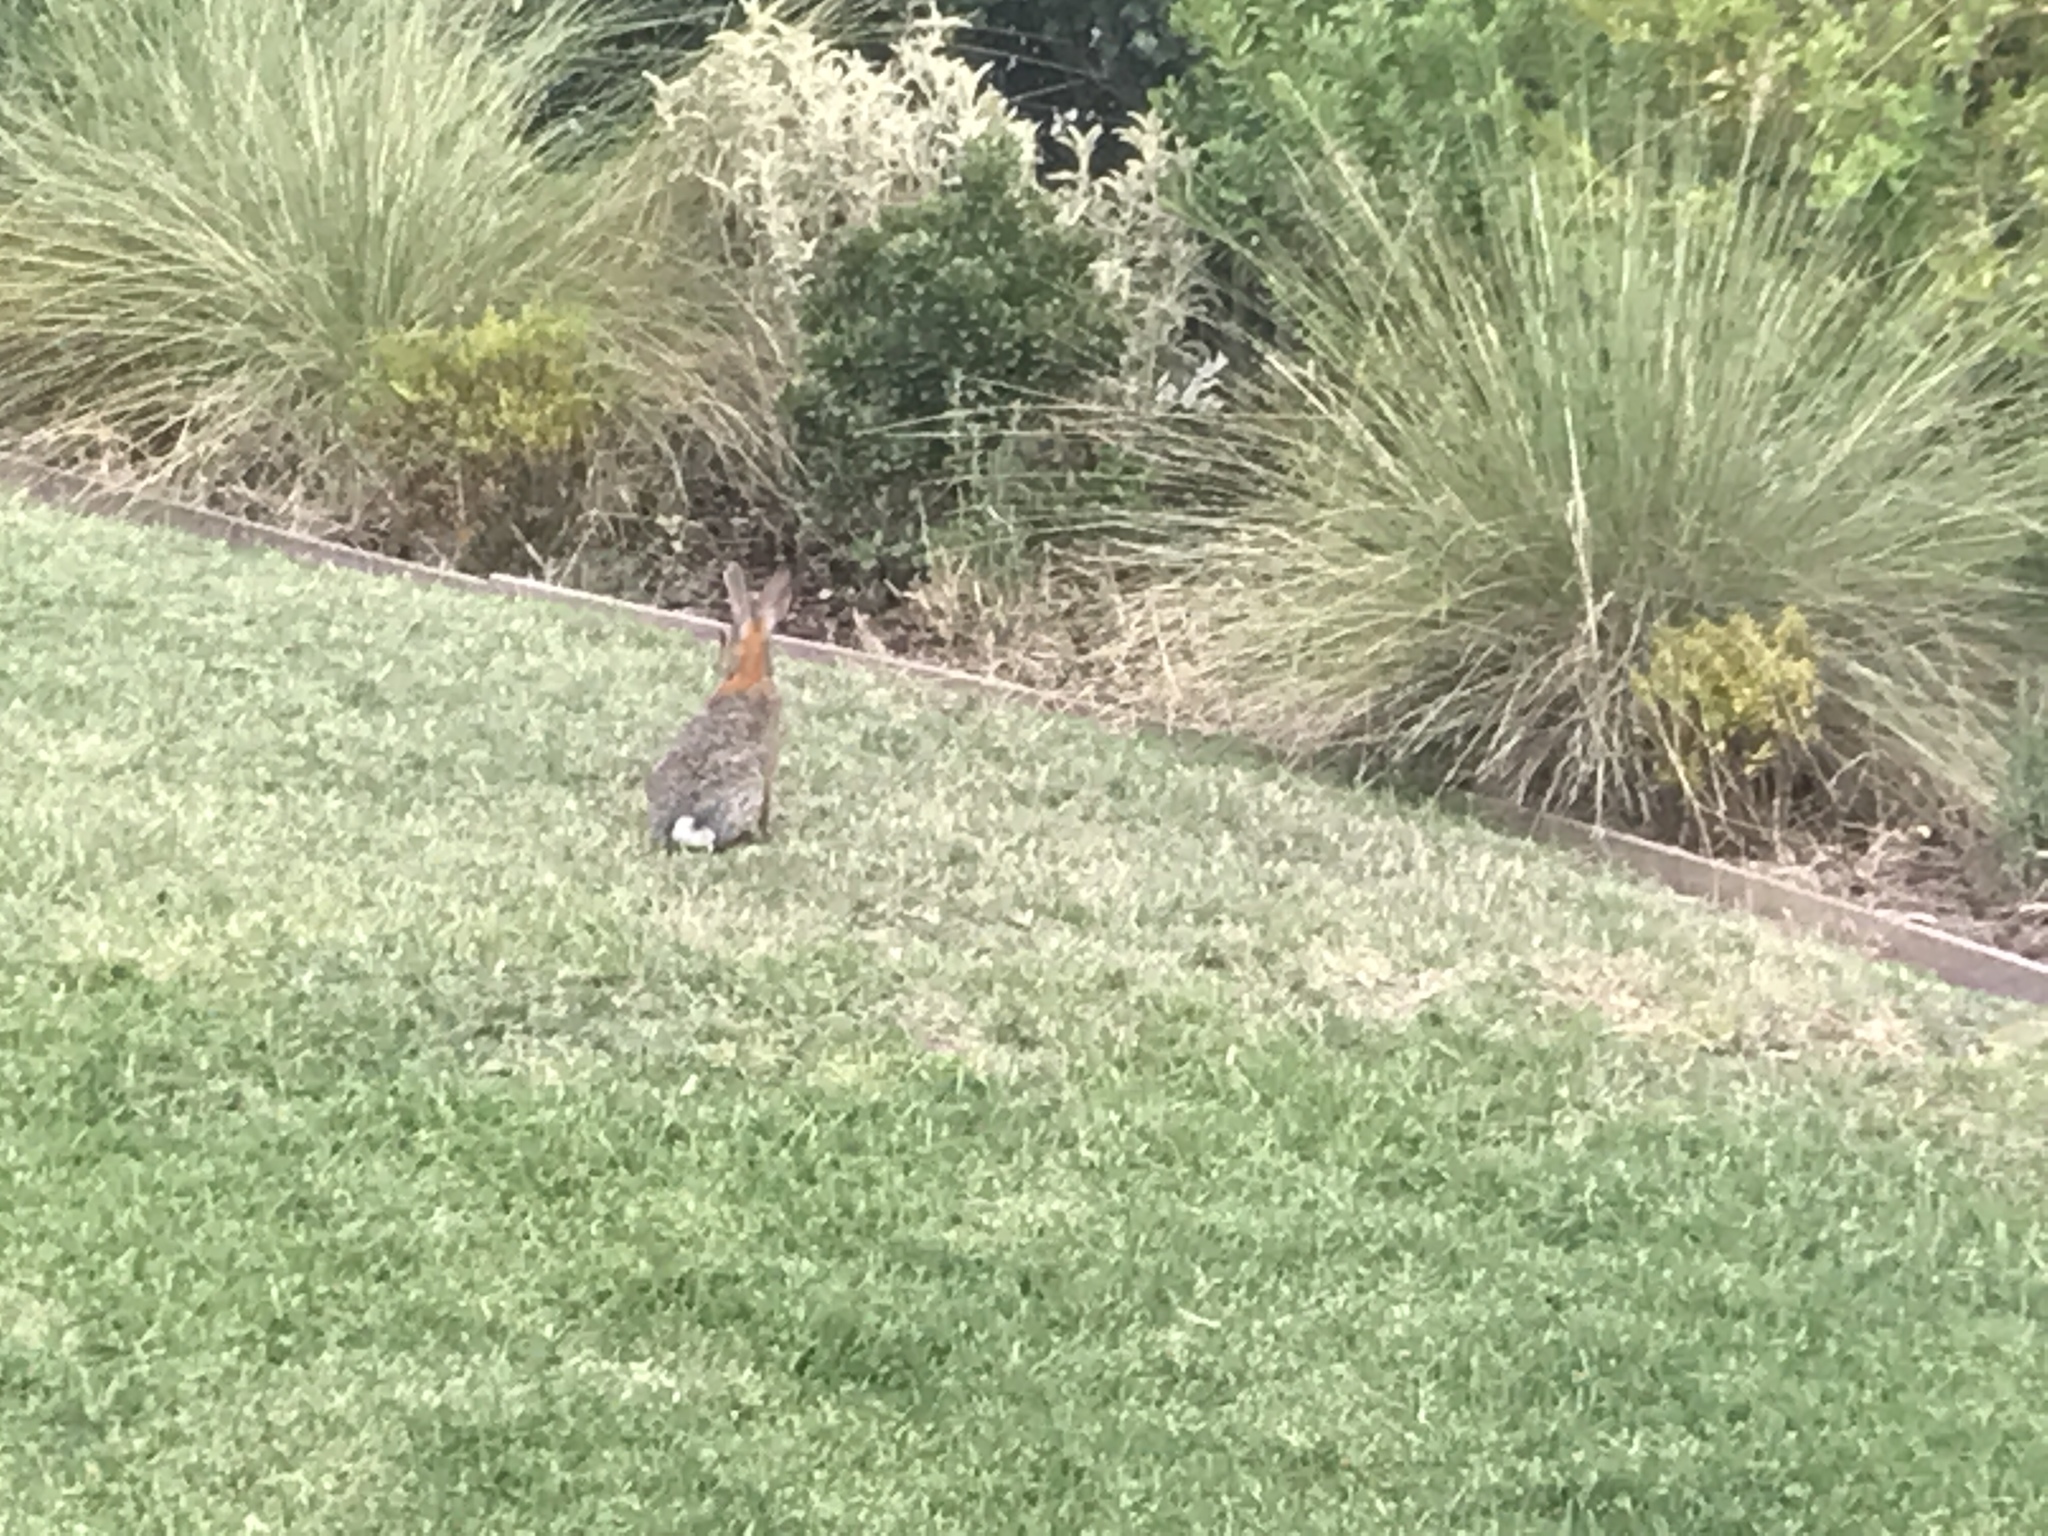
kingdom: Animalia
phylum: Chordata
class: Mammalia
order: Lagomorpha
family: Leporidae
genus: Sylvilagus
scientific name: Sylvilagus audubonii
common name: Desert cottontail
